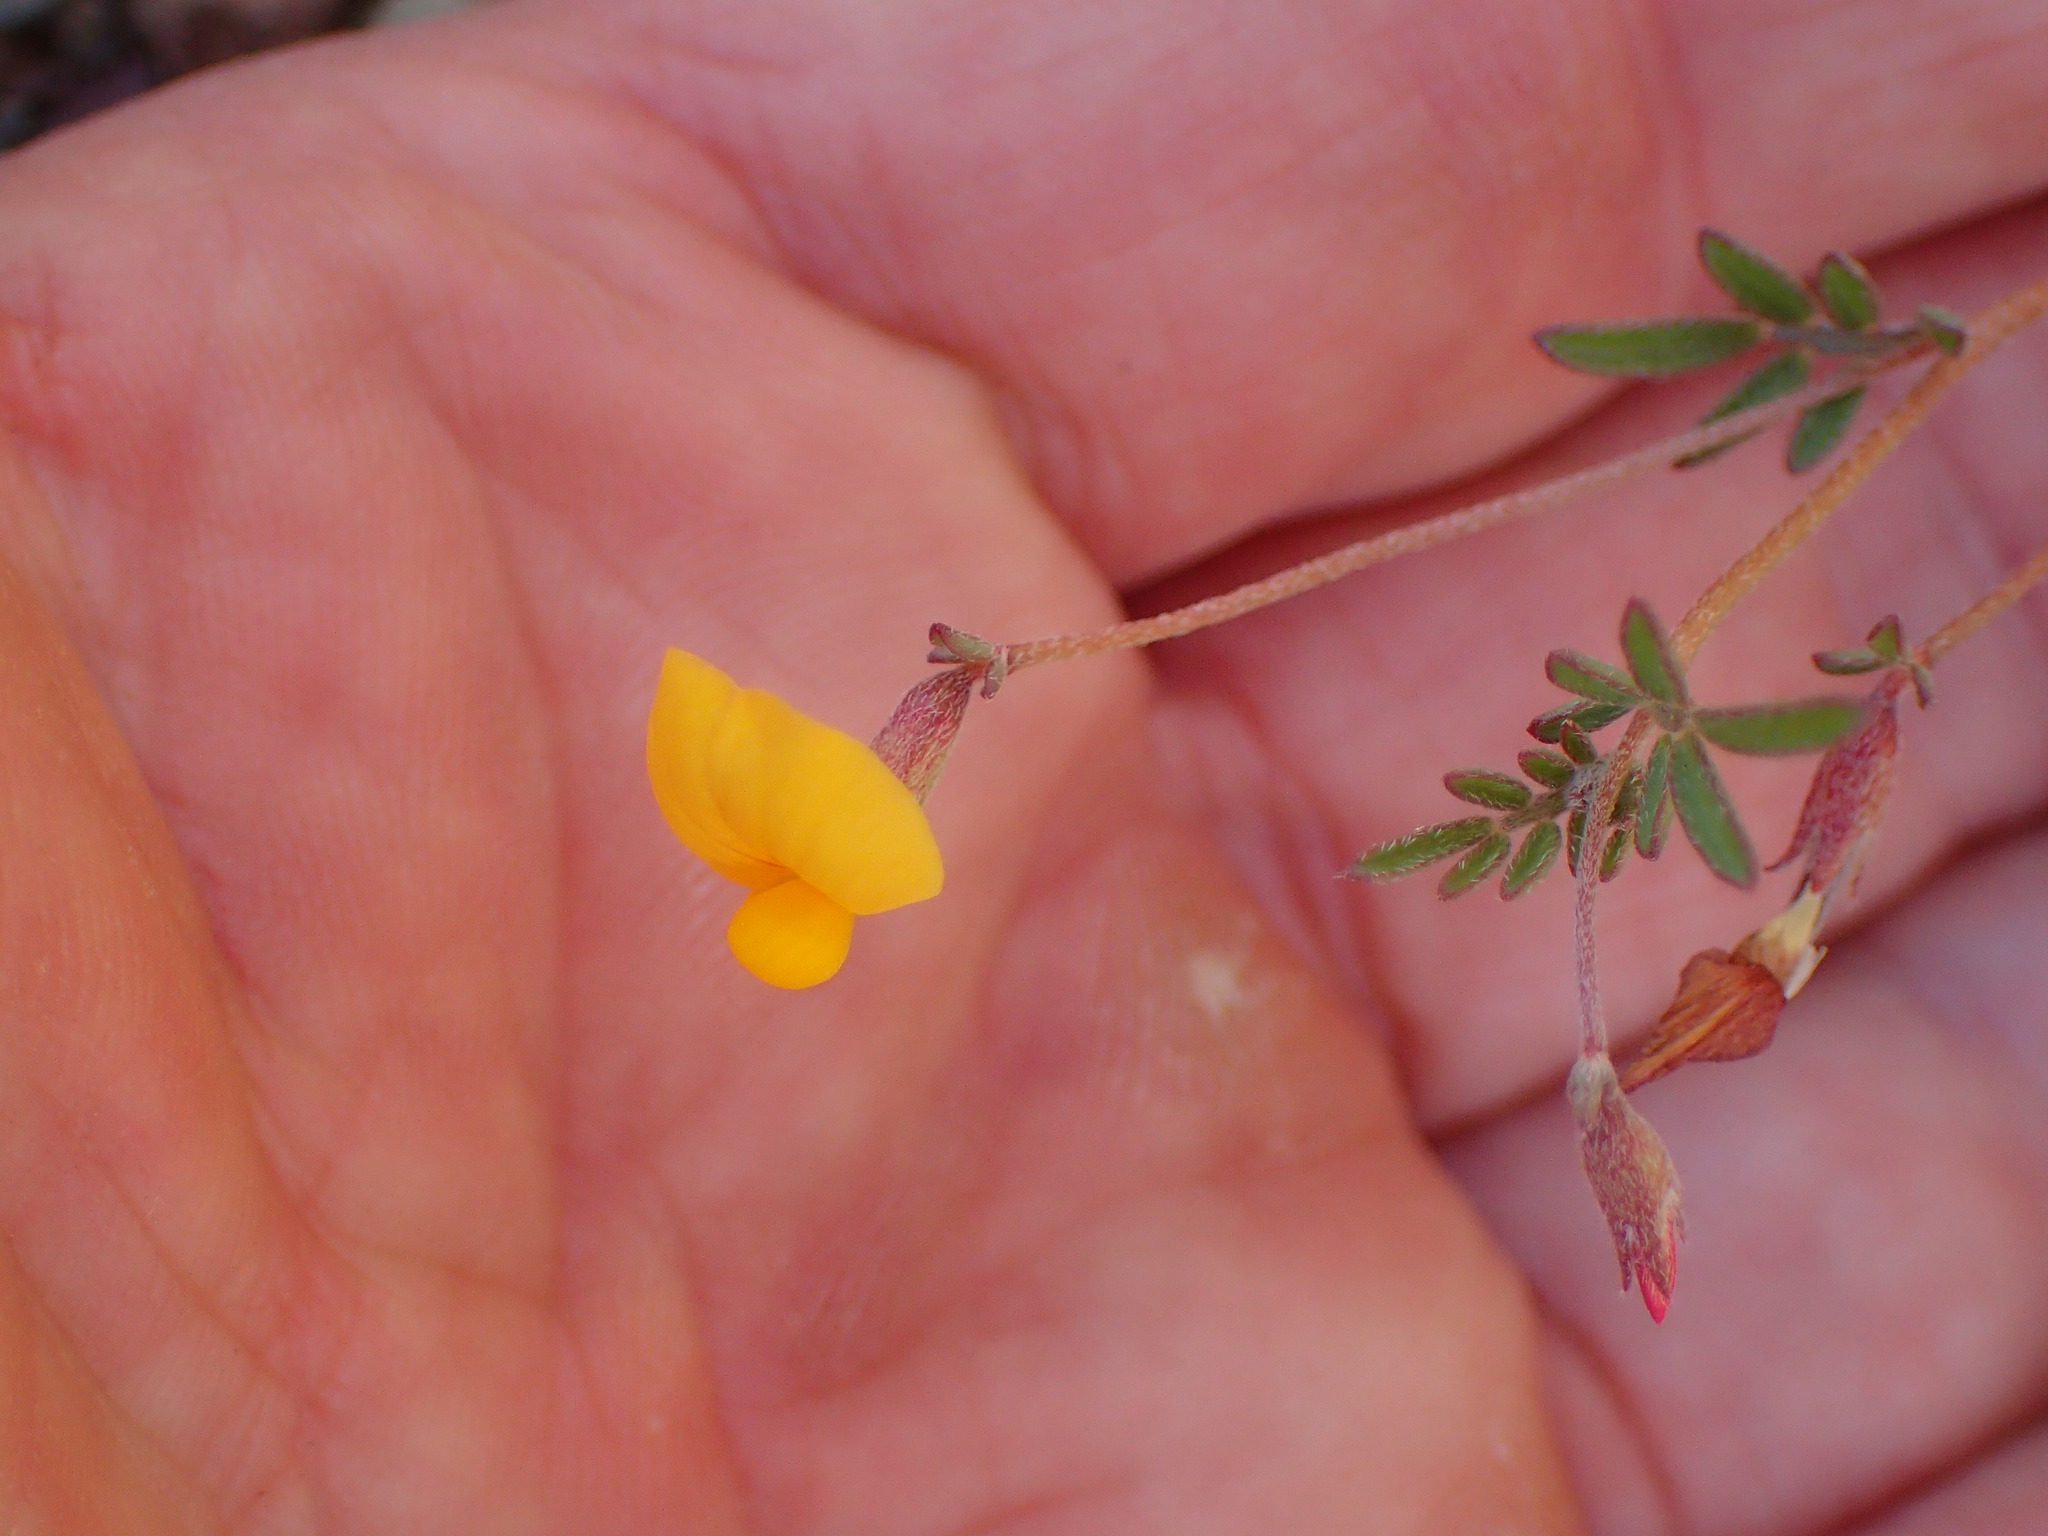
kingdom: Plantae
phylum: Tracheophyta
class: Magnoliopsida
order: Fabales
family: Fabaceae
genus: Acmispon
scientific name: Acmispon strigosus
